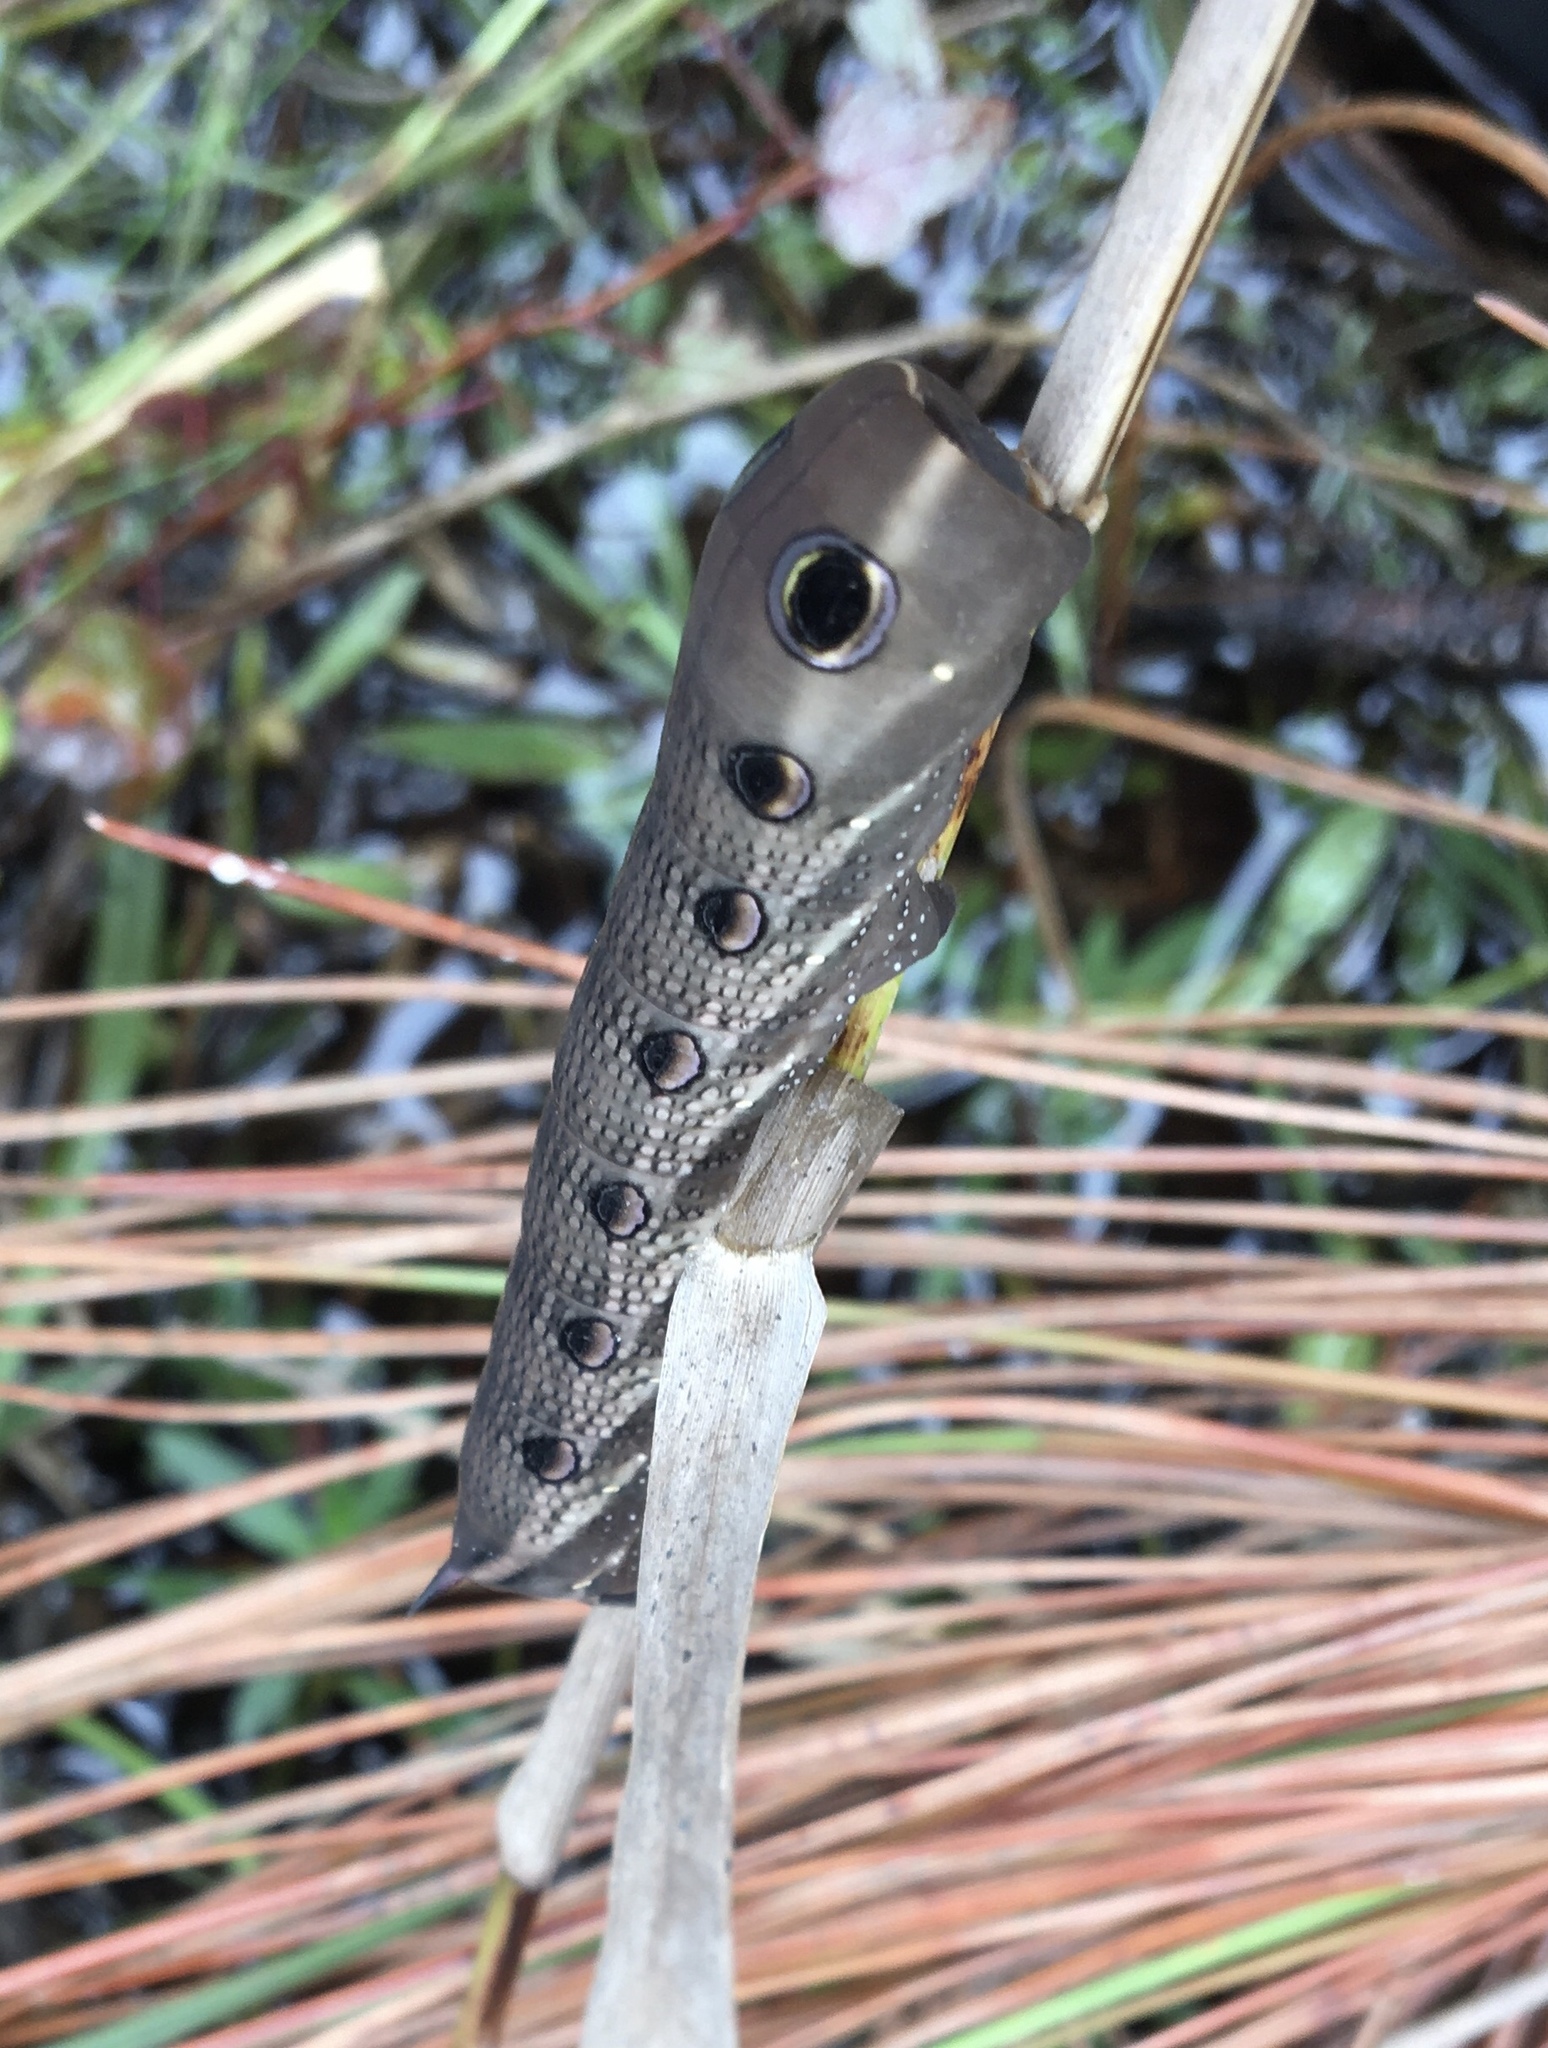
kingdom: Animalia
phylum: Arthropoda
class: Insecta
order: Lepidoptera
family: Sphingidae
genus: Xylophanes
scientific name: Xylophanes tersa
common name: Tersa sphinx
